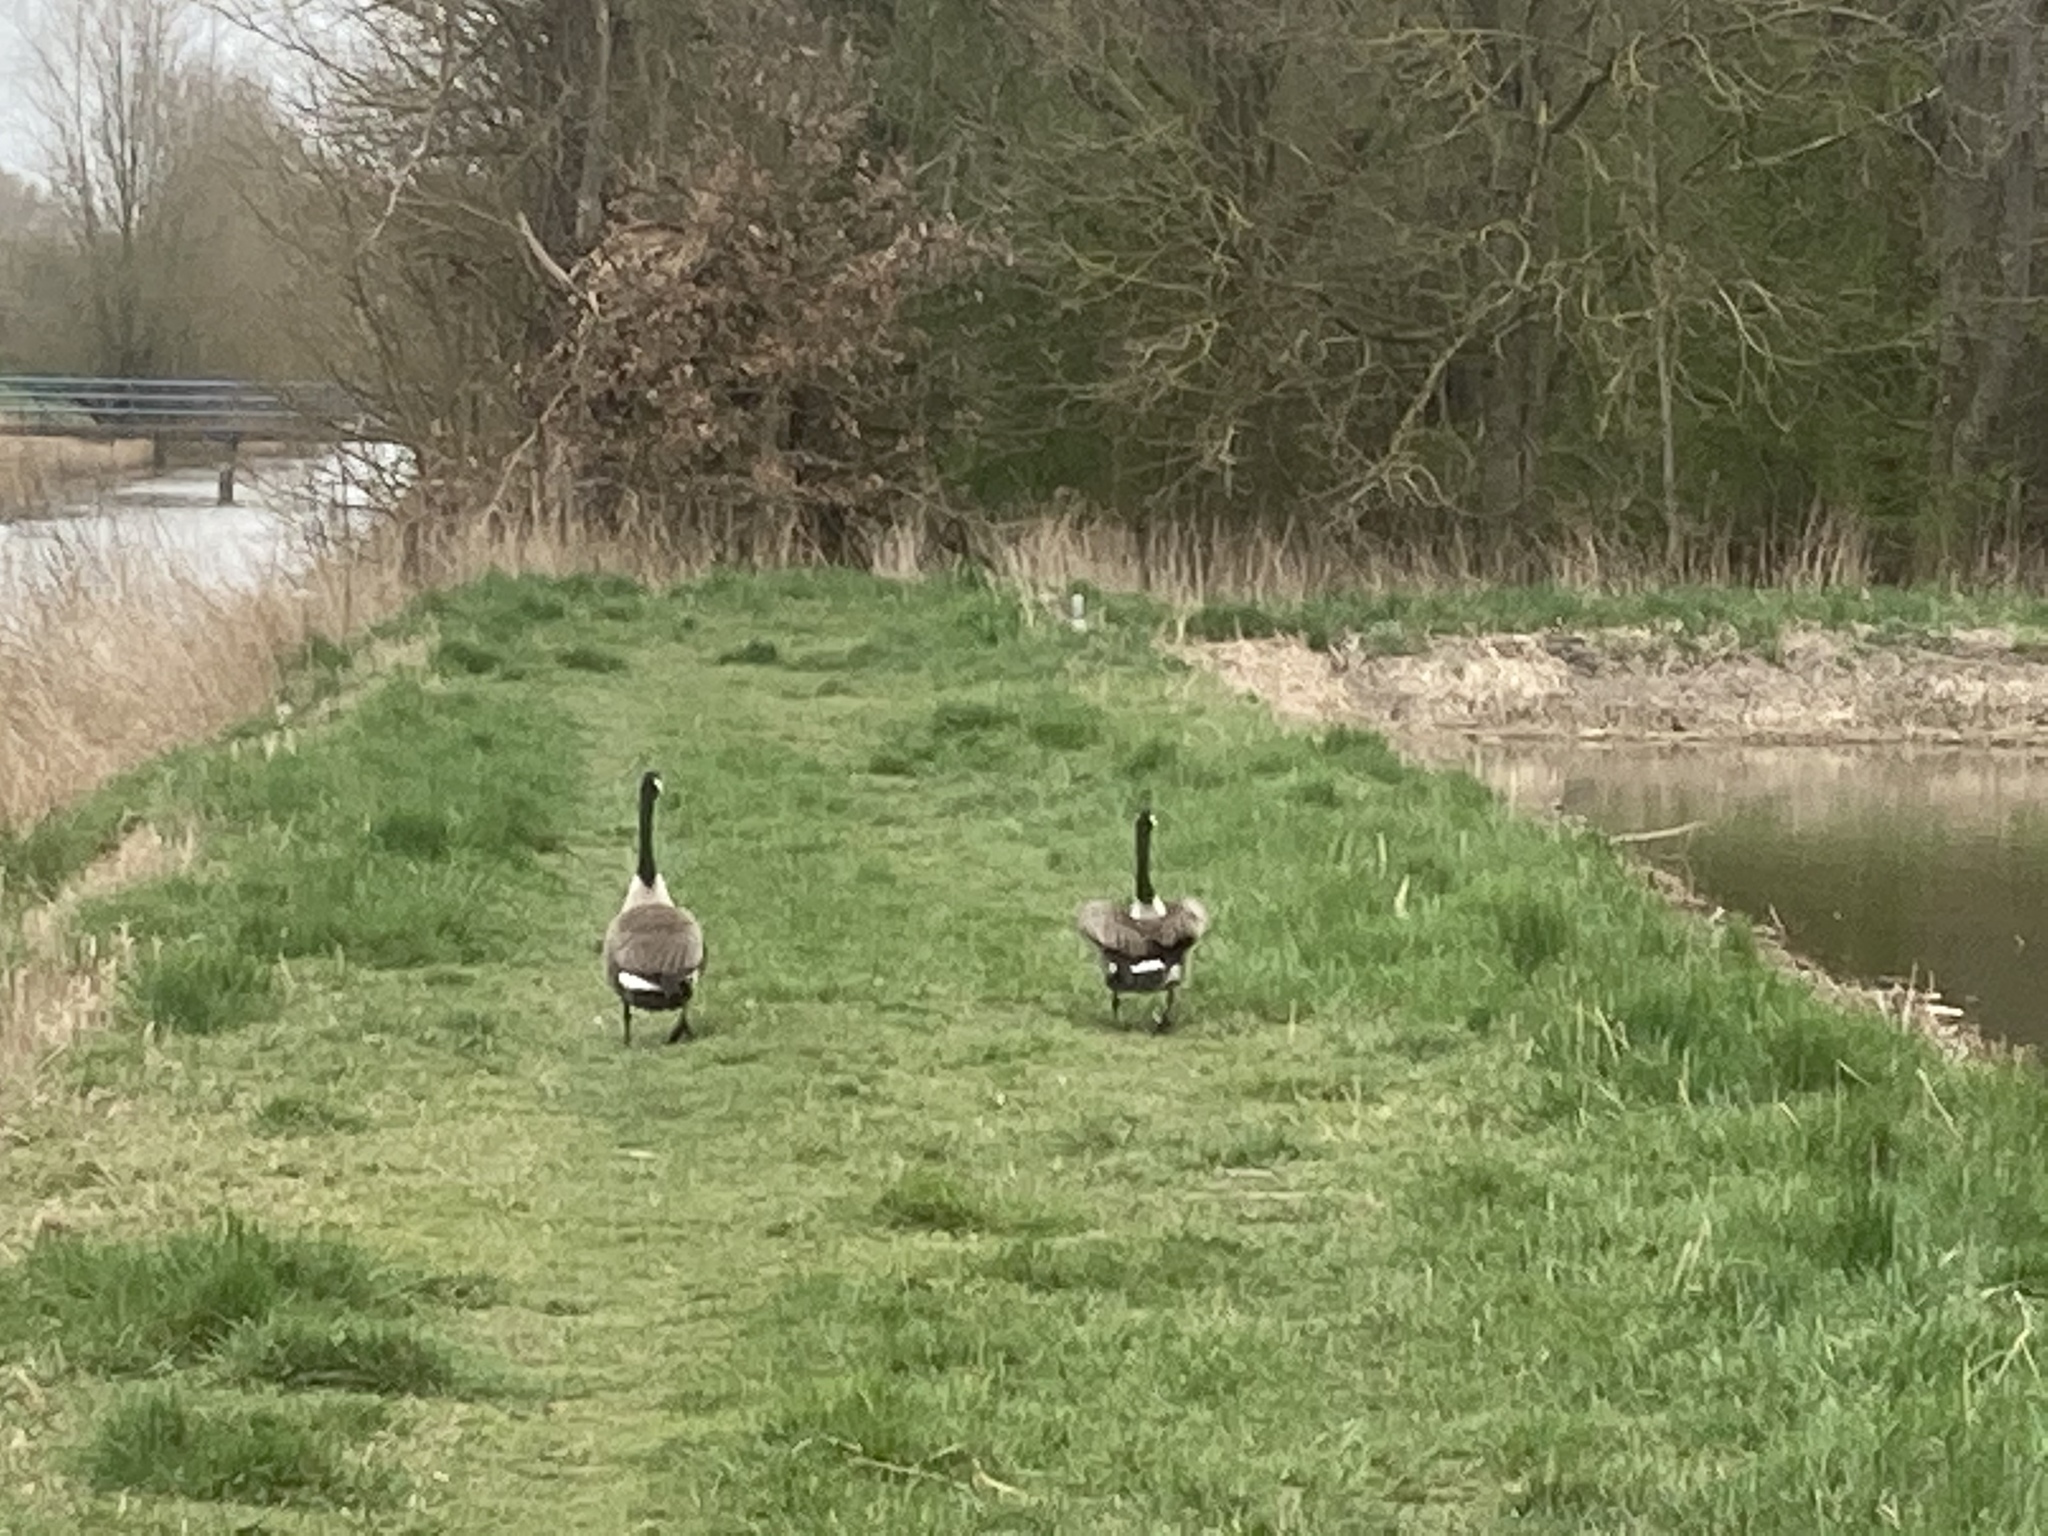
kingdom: Animalia
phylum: Chordata
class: Aves
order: Anseriformes
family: Anatidae
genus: Branta
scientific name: Branta canadensis
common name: Canada goose
